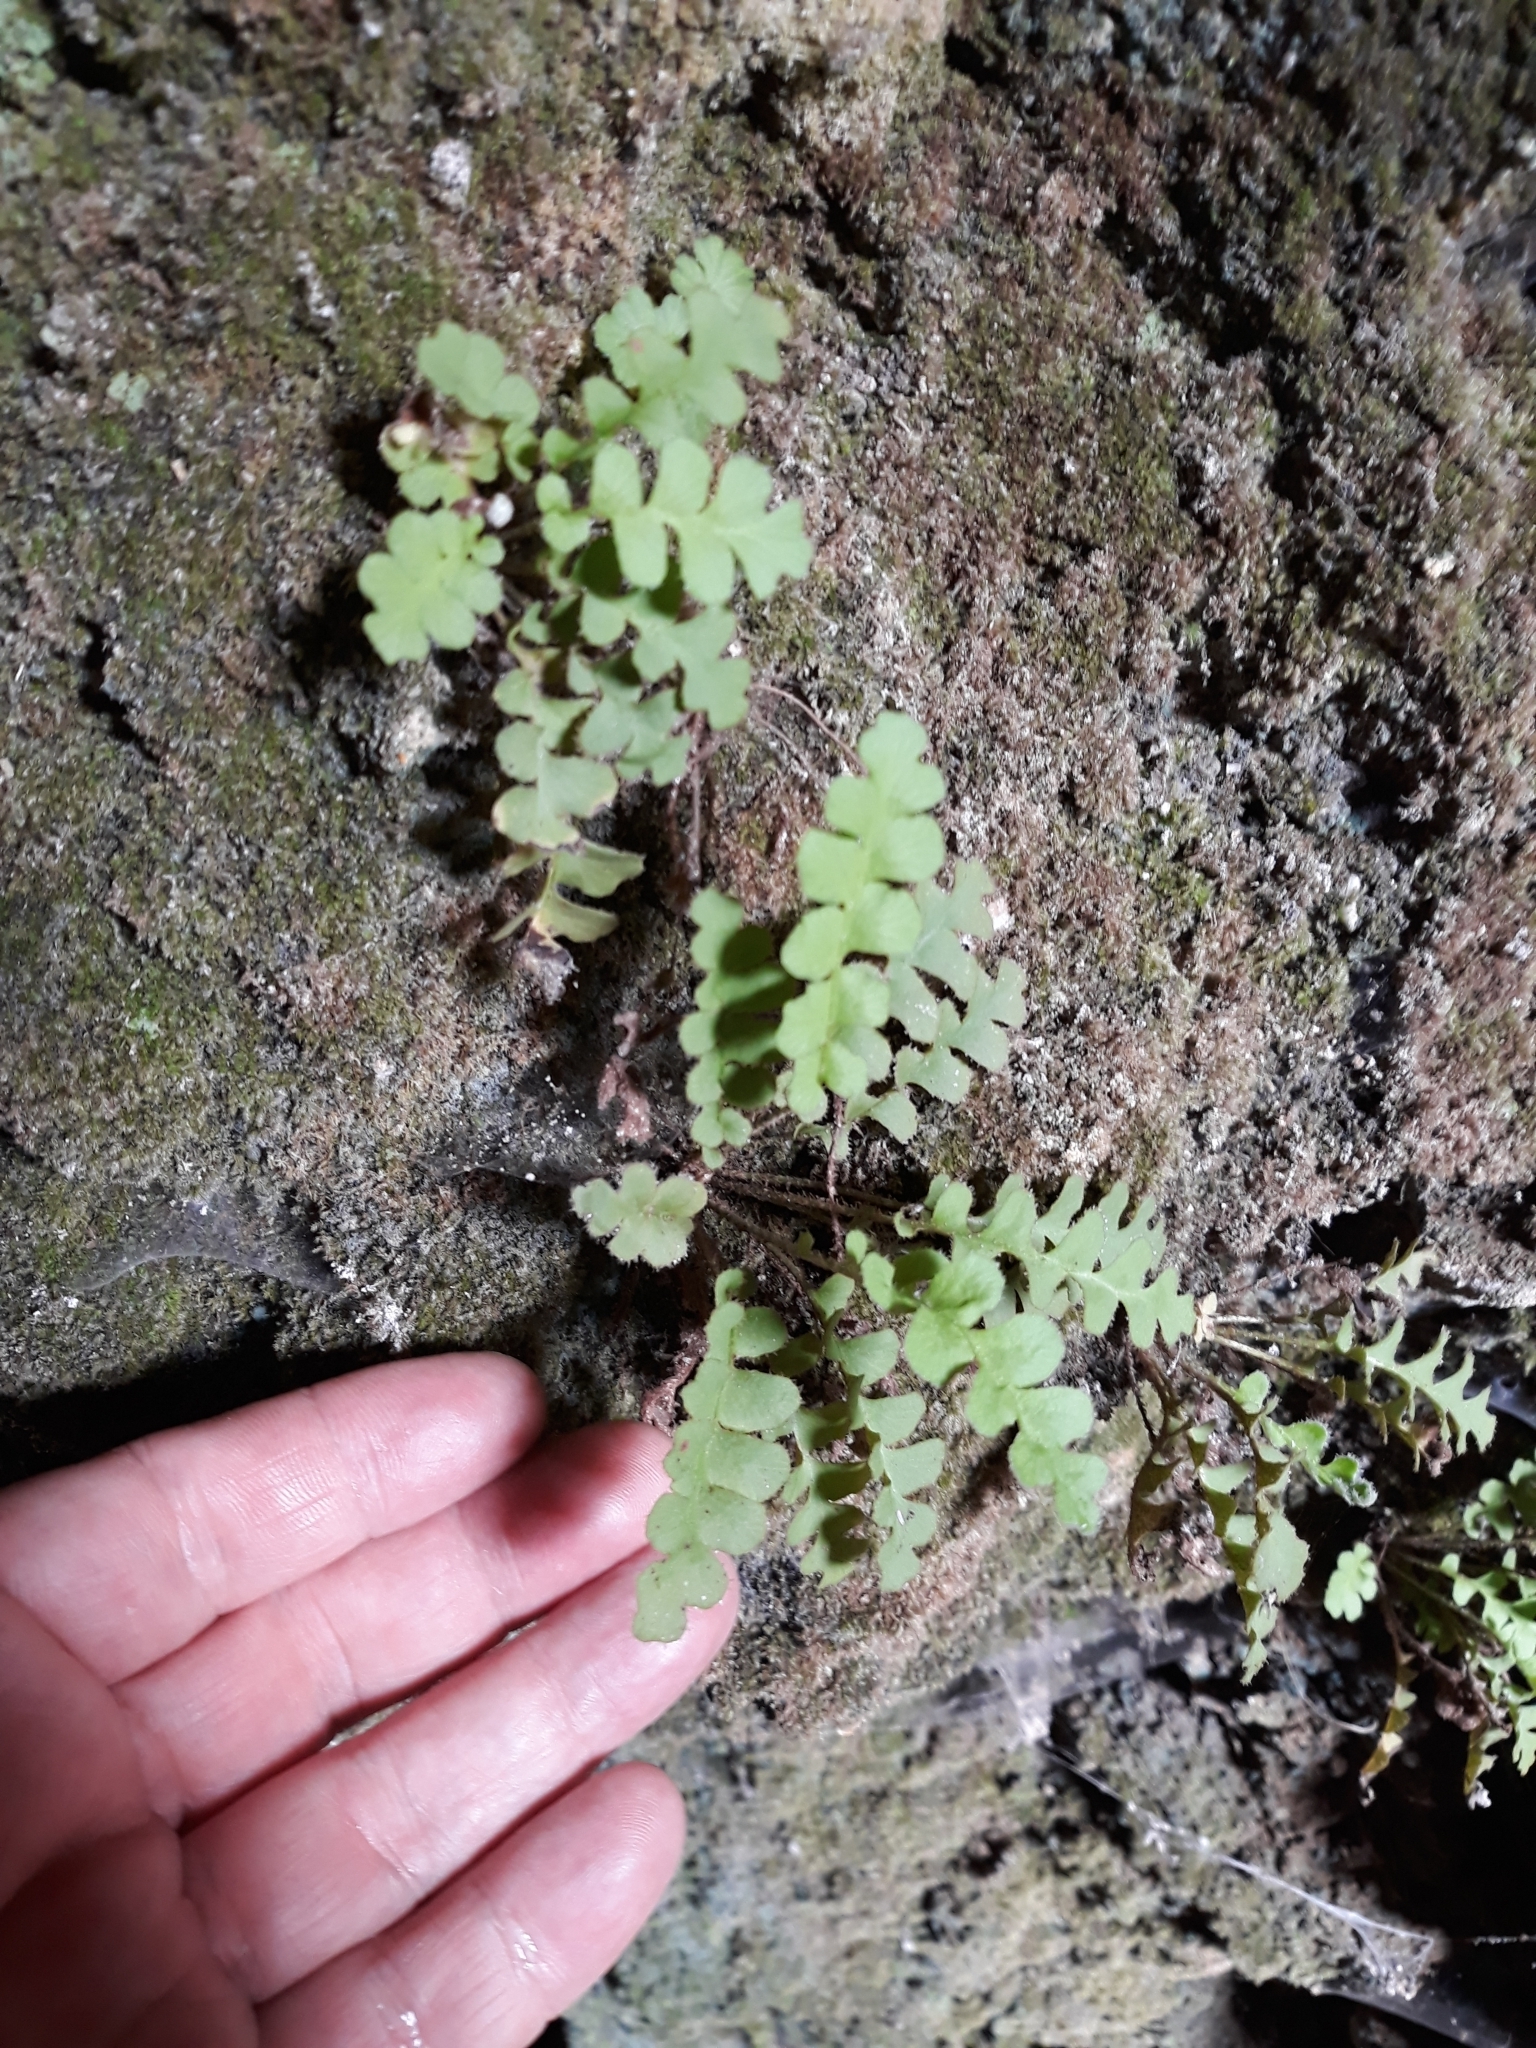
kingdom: Plantae
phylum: Tracheophyta
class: Polypodiopsida
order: Polypodiales
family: Aspleniaceae
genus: Asplenium
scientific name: Asplenium ceterach
